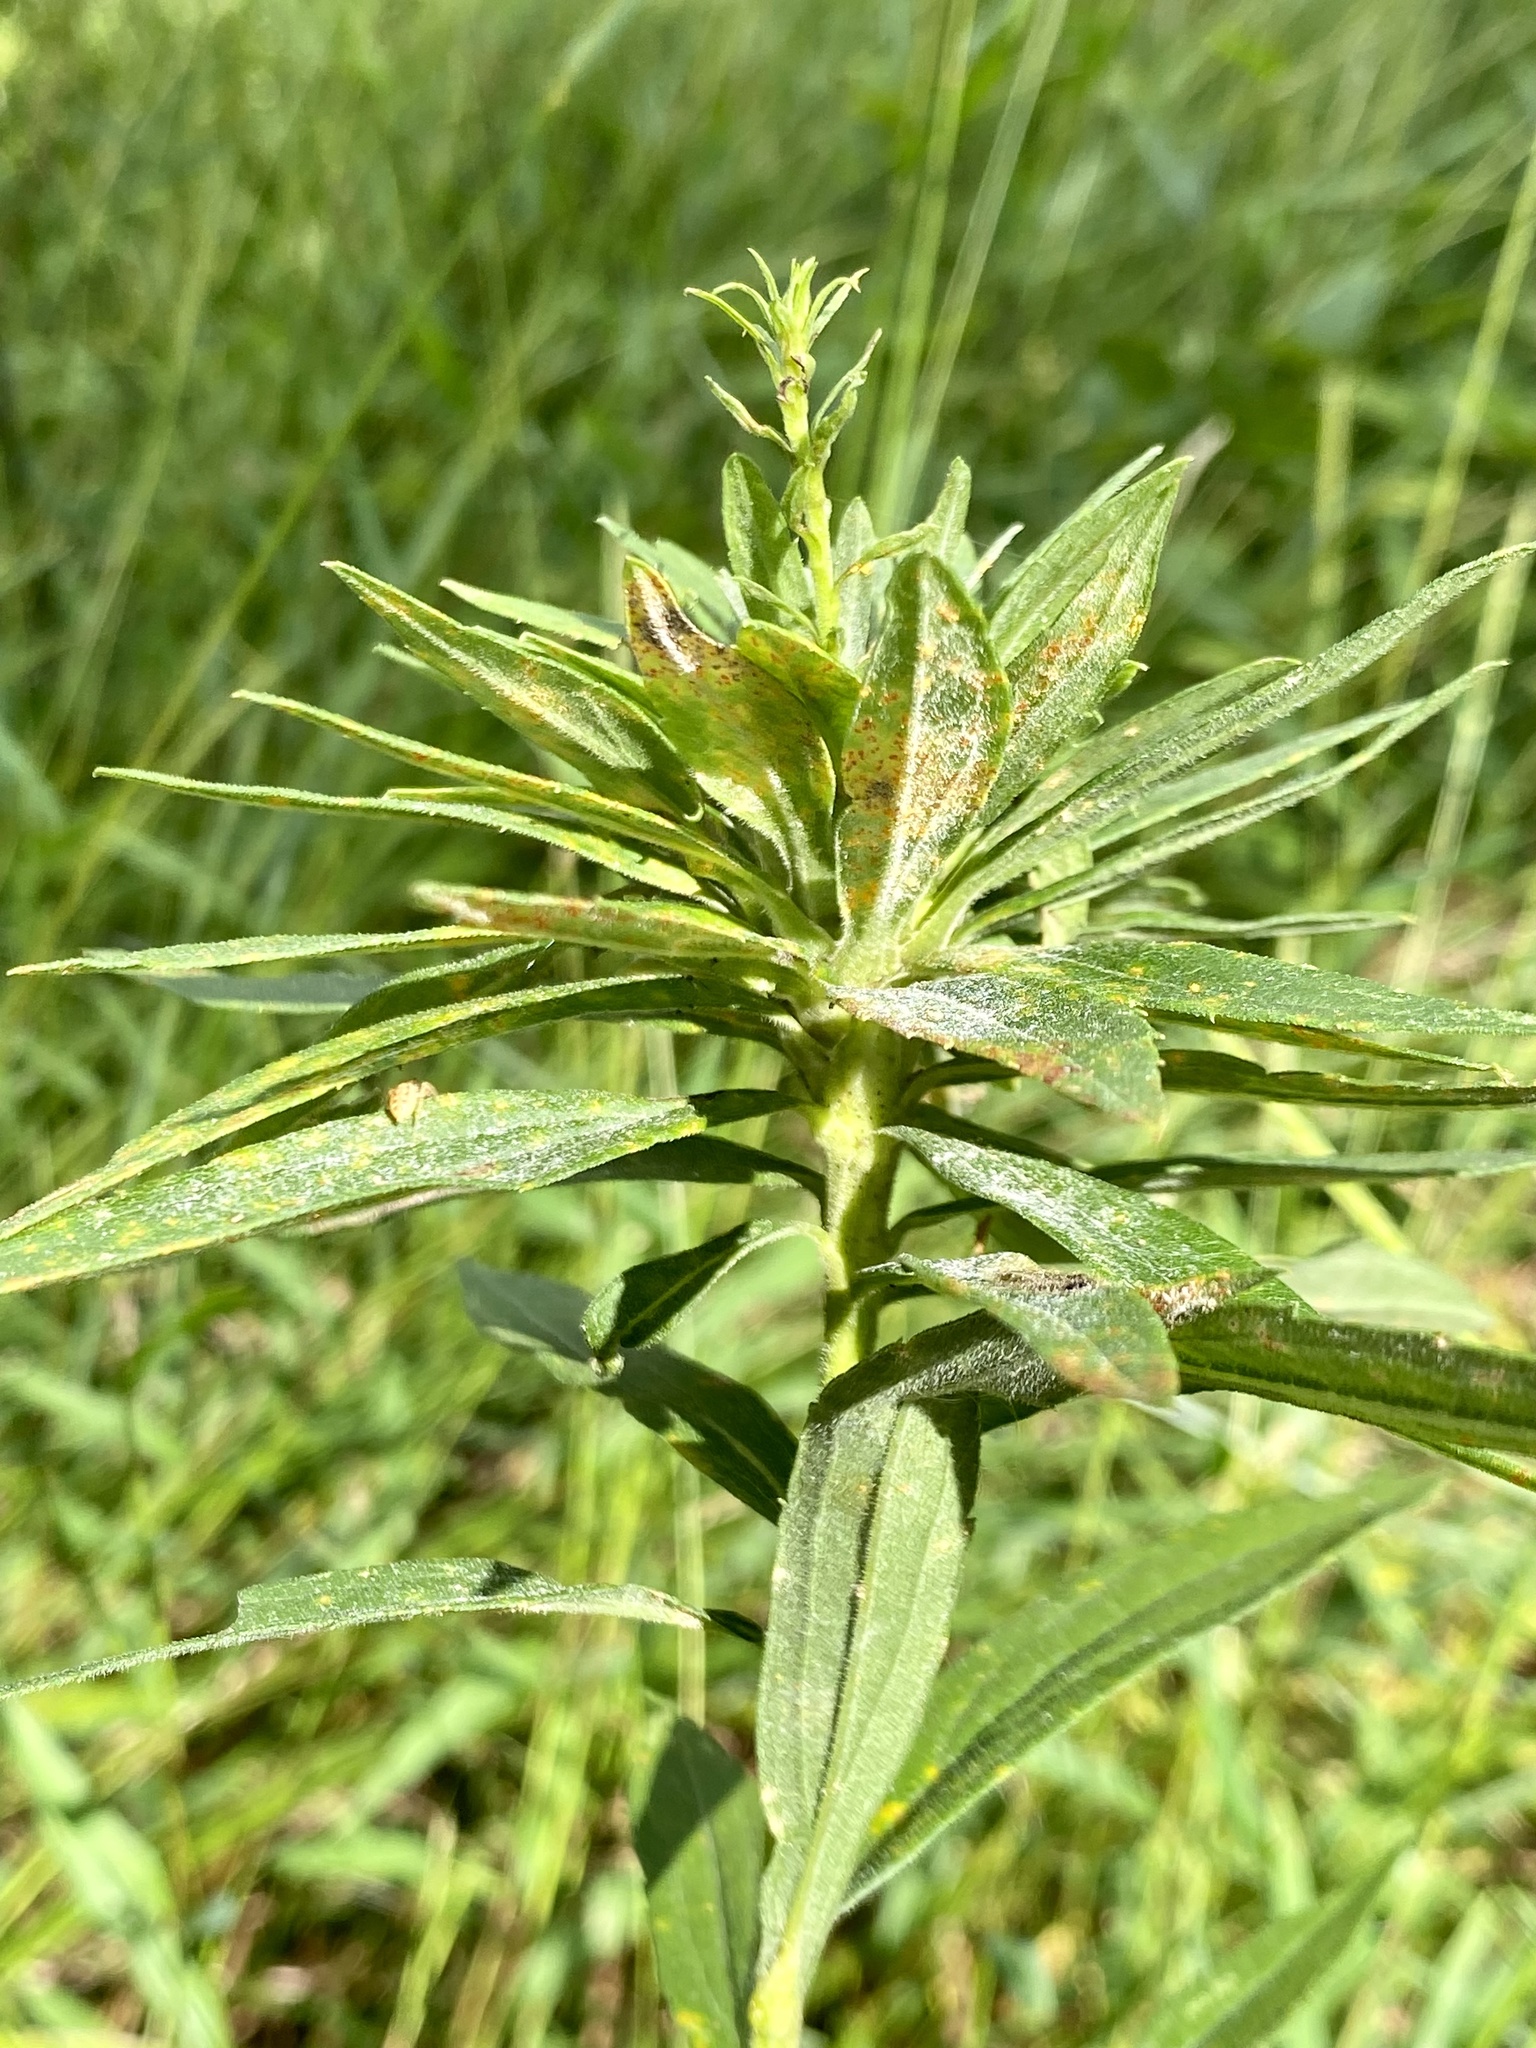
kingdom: Animalia
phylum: Arthropoda
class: Insecta
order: Diptera
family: Tephritidae
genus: Procecidochares
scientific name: Procecidochares atra
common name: Goldenrod brussels sprout gall fly
